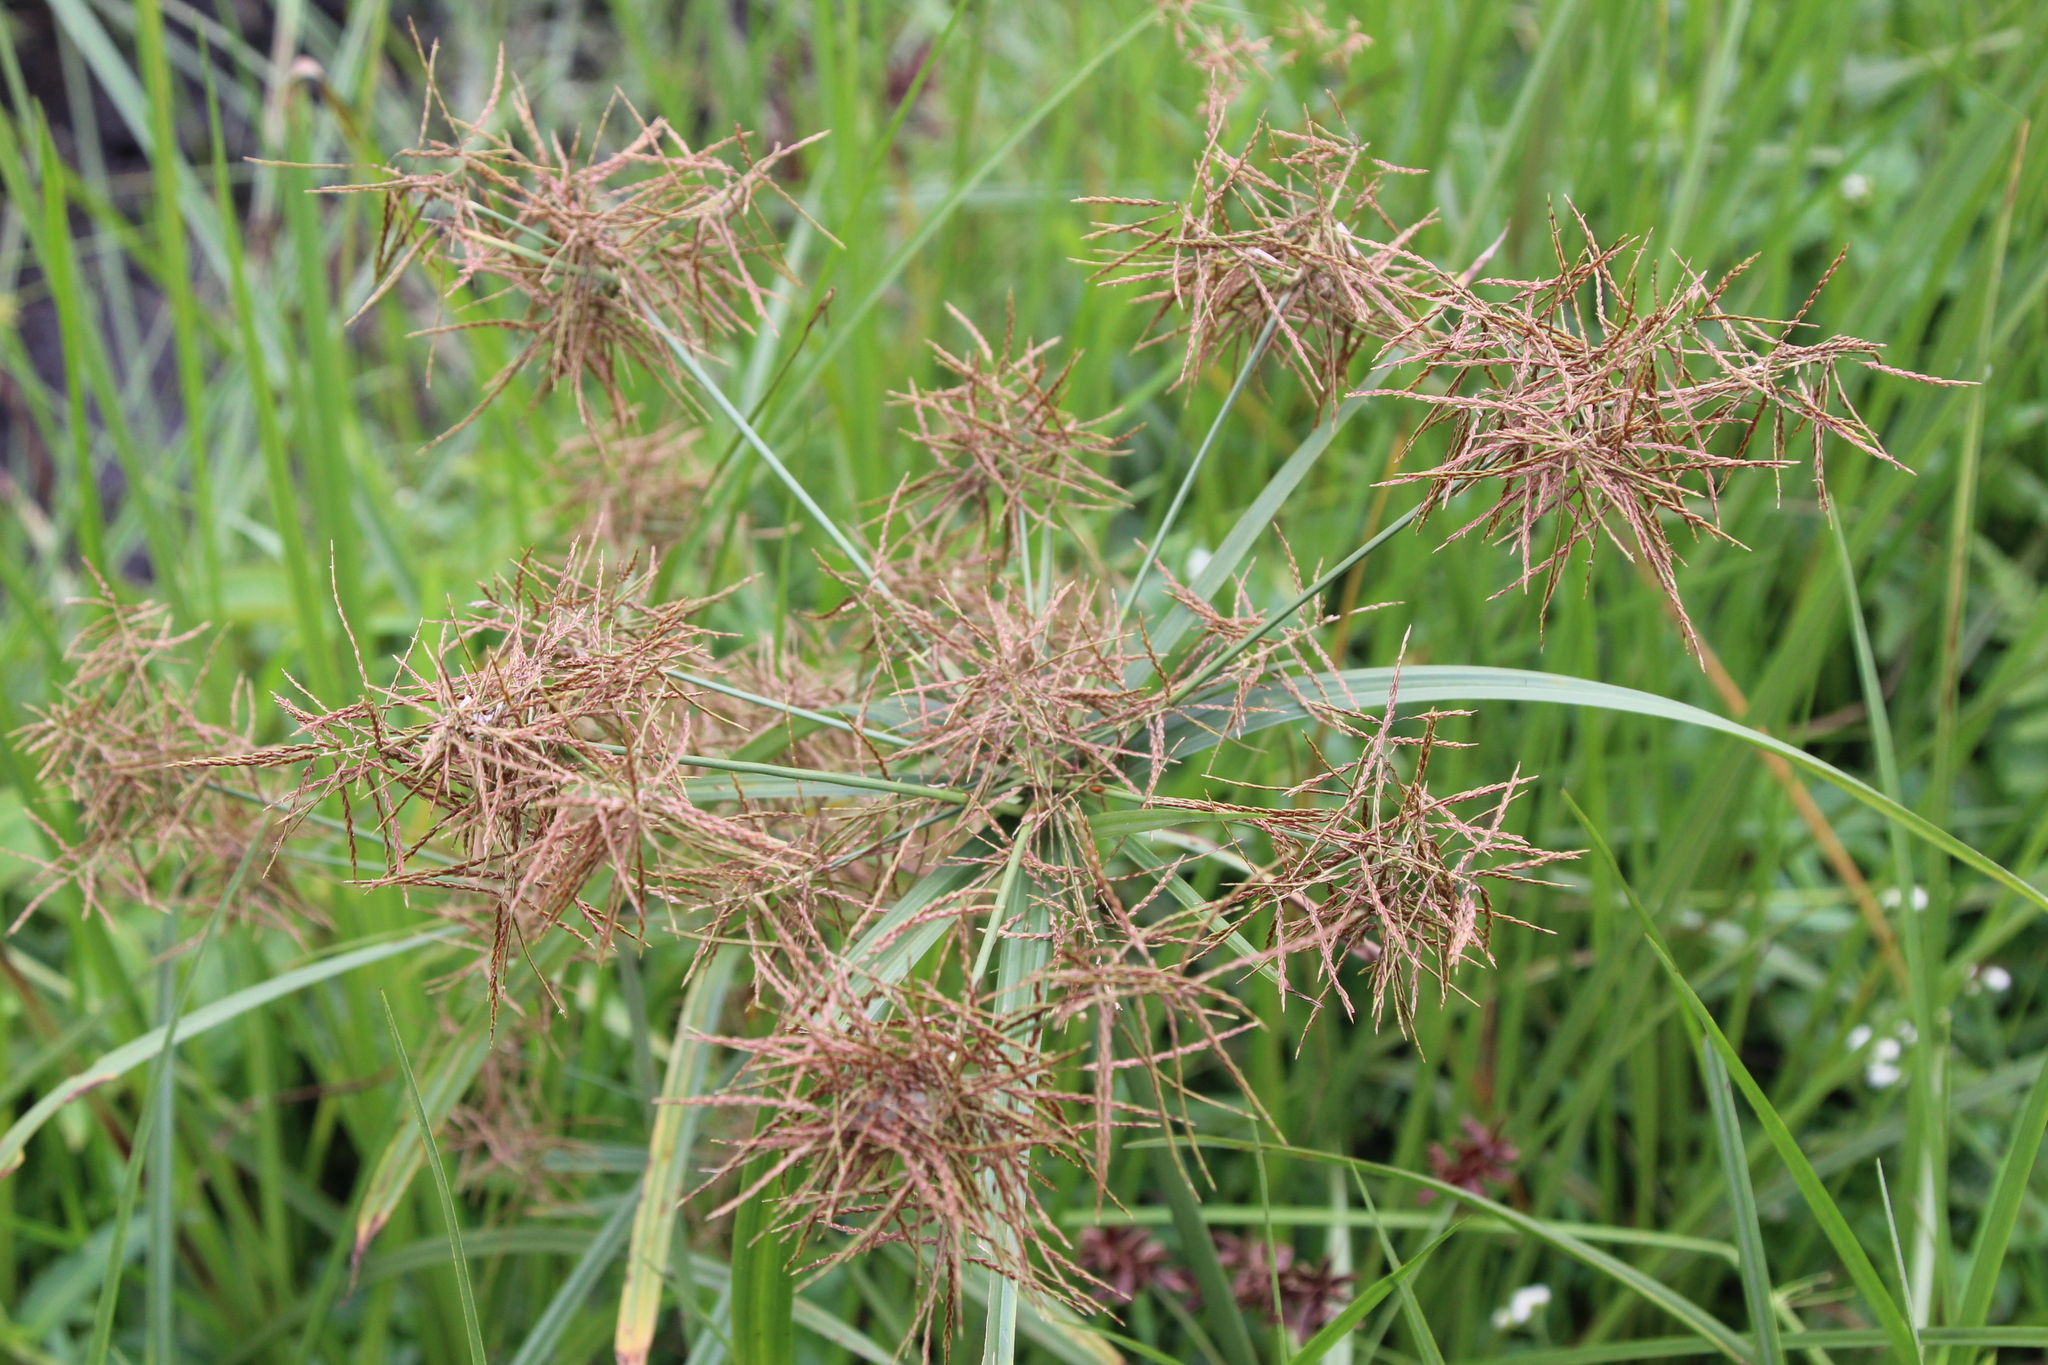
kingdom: Plantae
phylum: Tracheophyta
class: Liliopsida
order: Poales
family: Cyperaceae
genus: Cyperus
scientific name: Cyperus distans
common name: Slender cyperus
